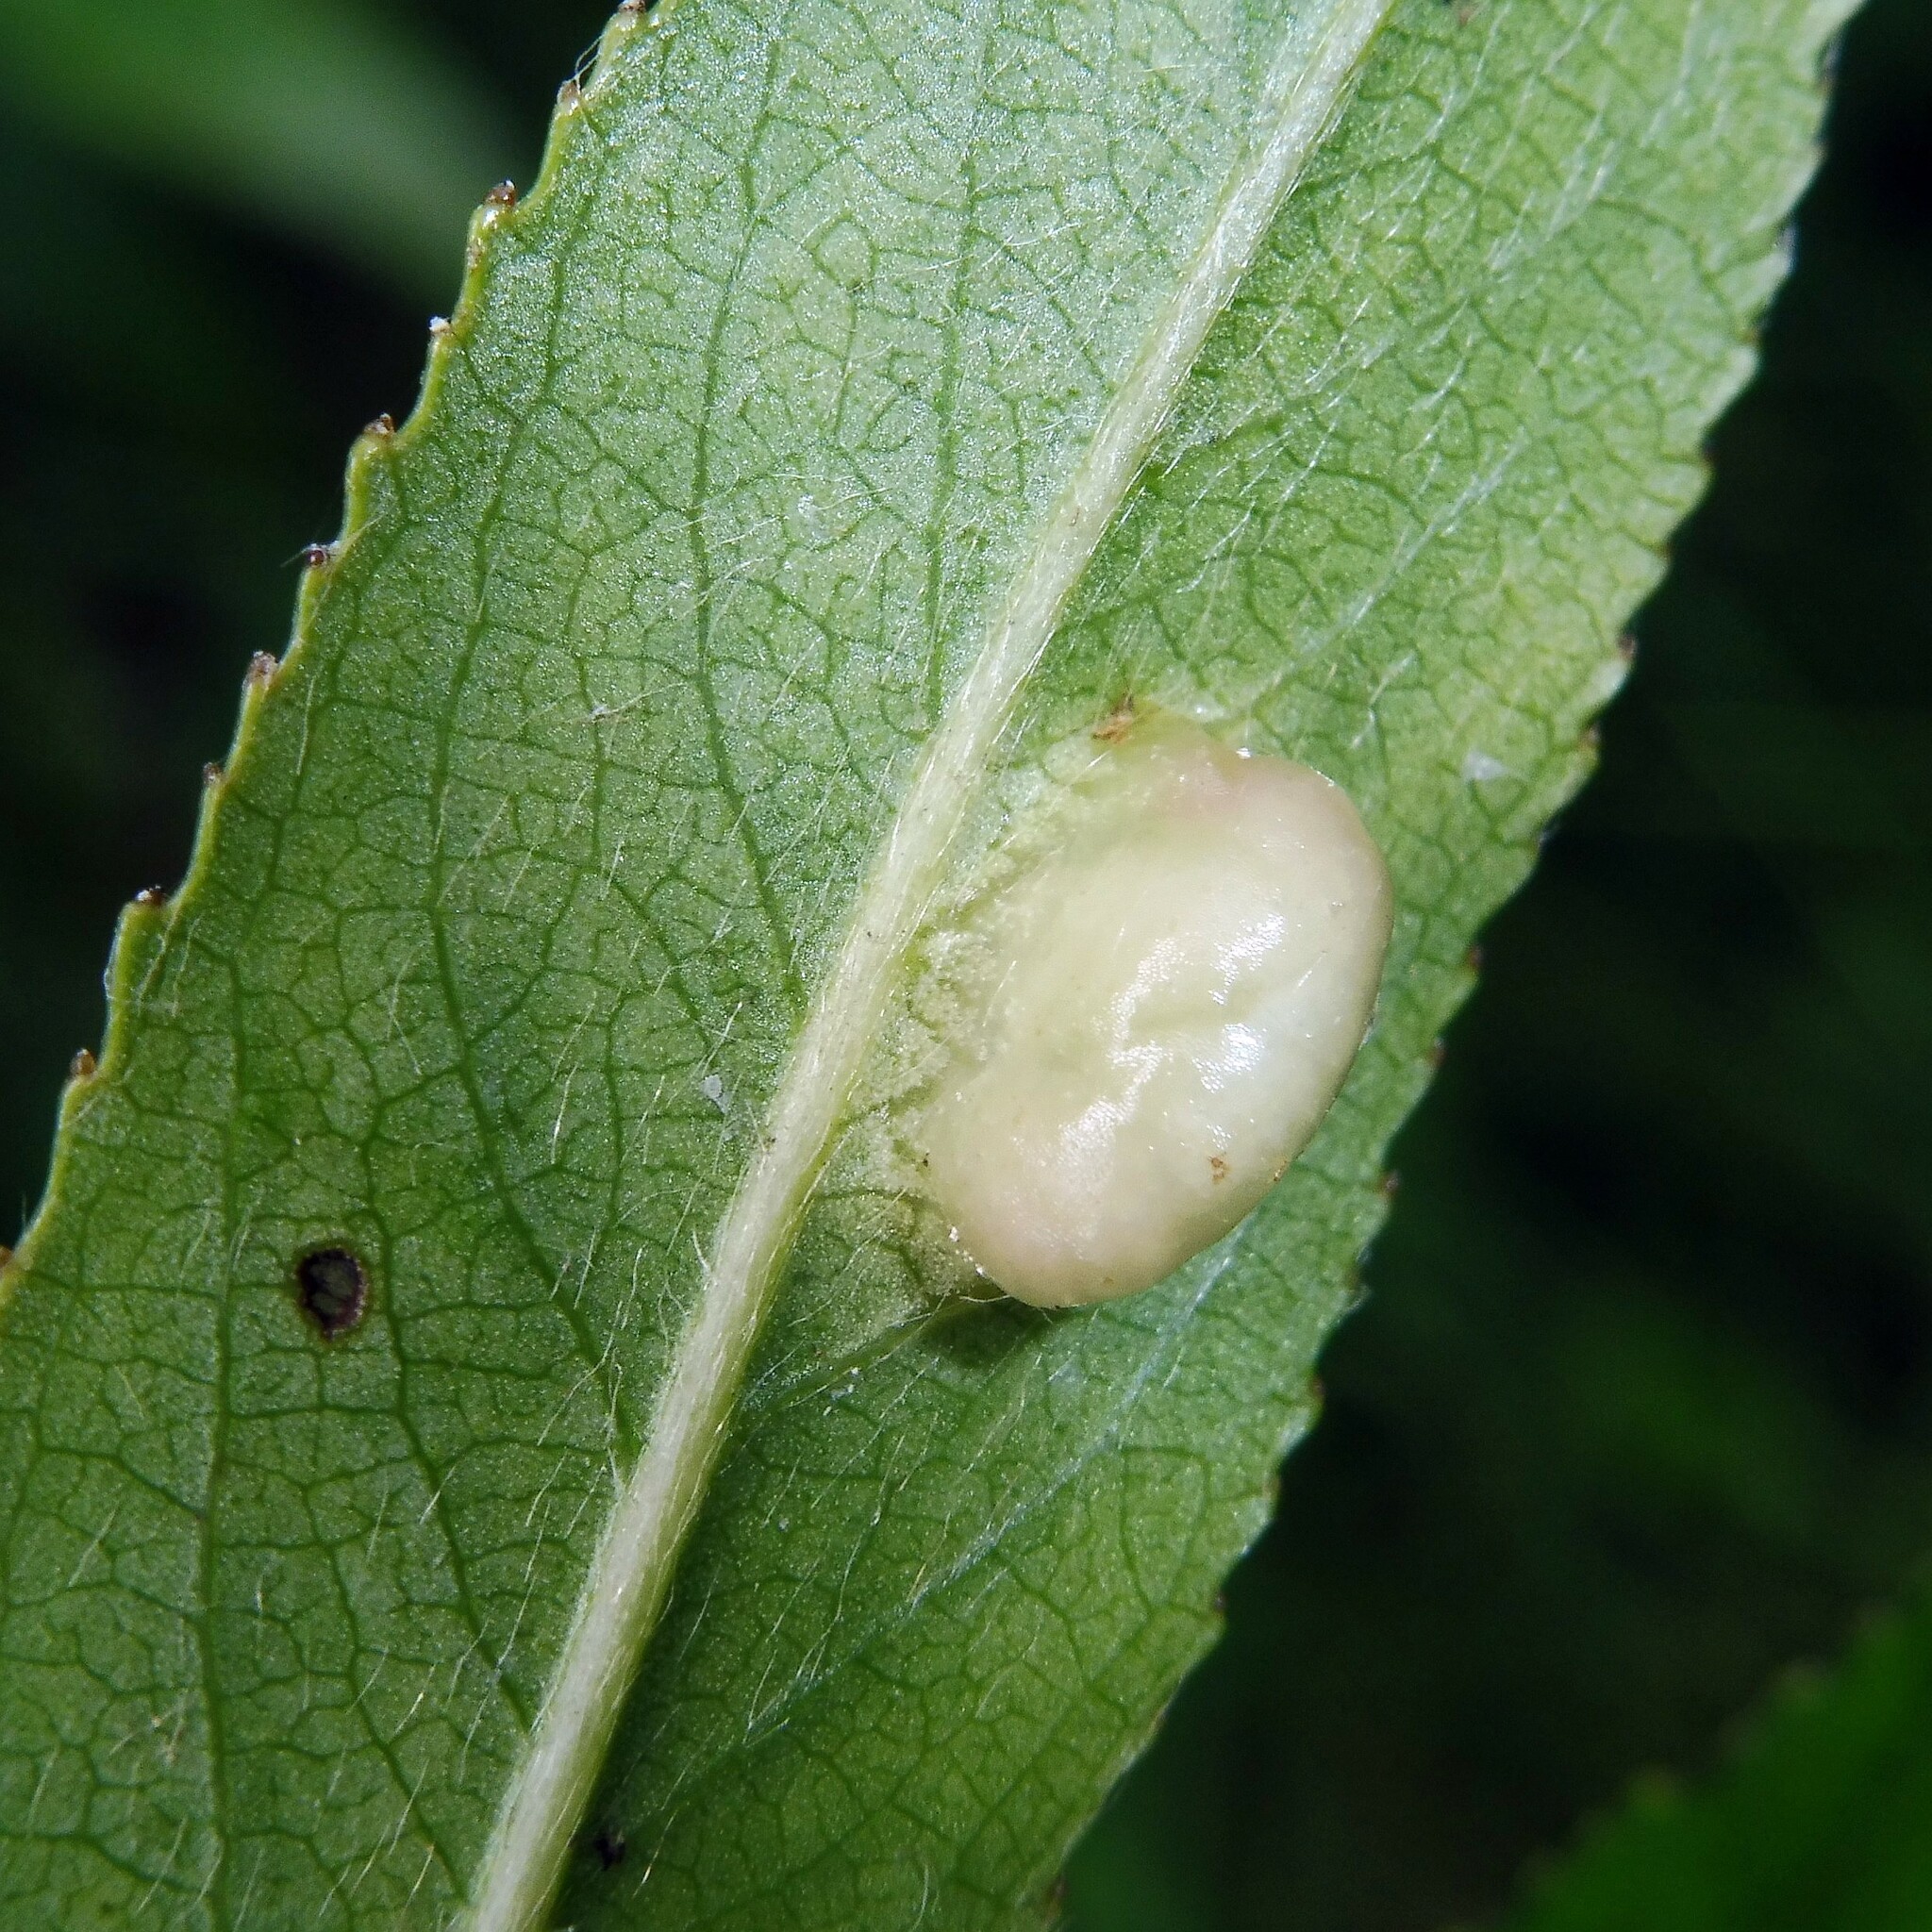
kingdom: Animalia
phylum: Arthropoda
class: Insecta
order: Hymenoptera
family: Tenthredinidae
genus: Pontania
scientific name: Pontania proxima
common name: Common sawfly
